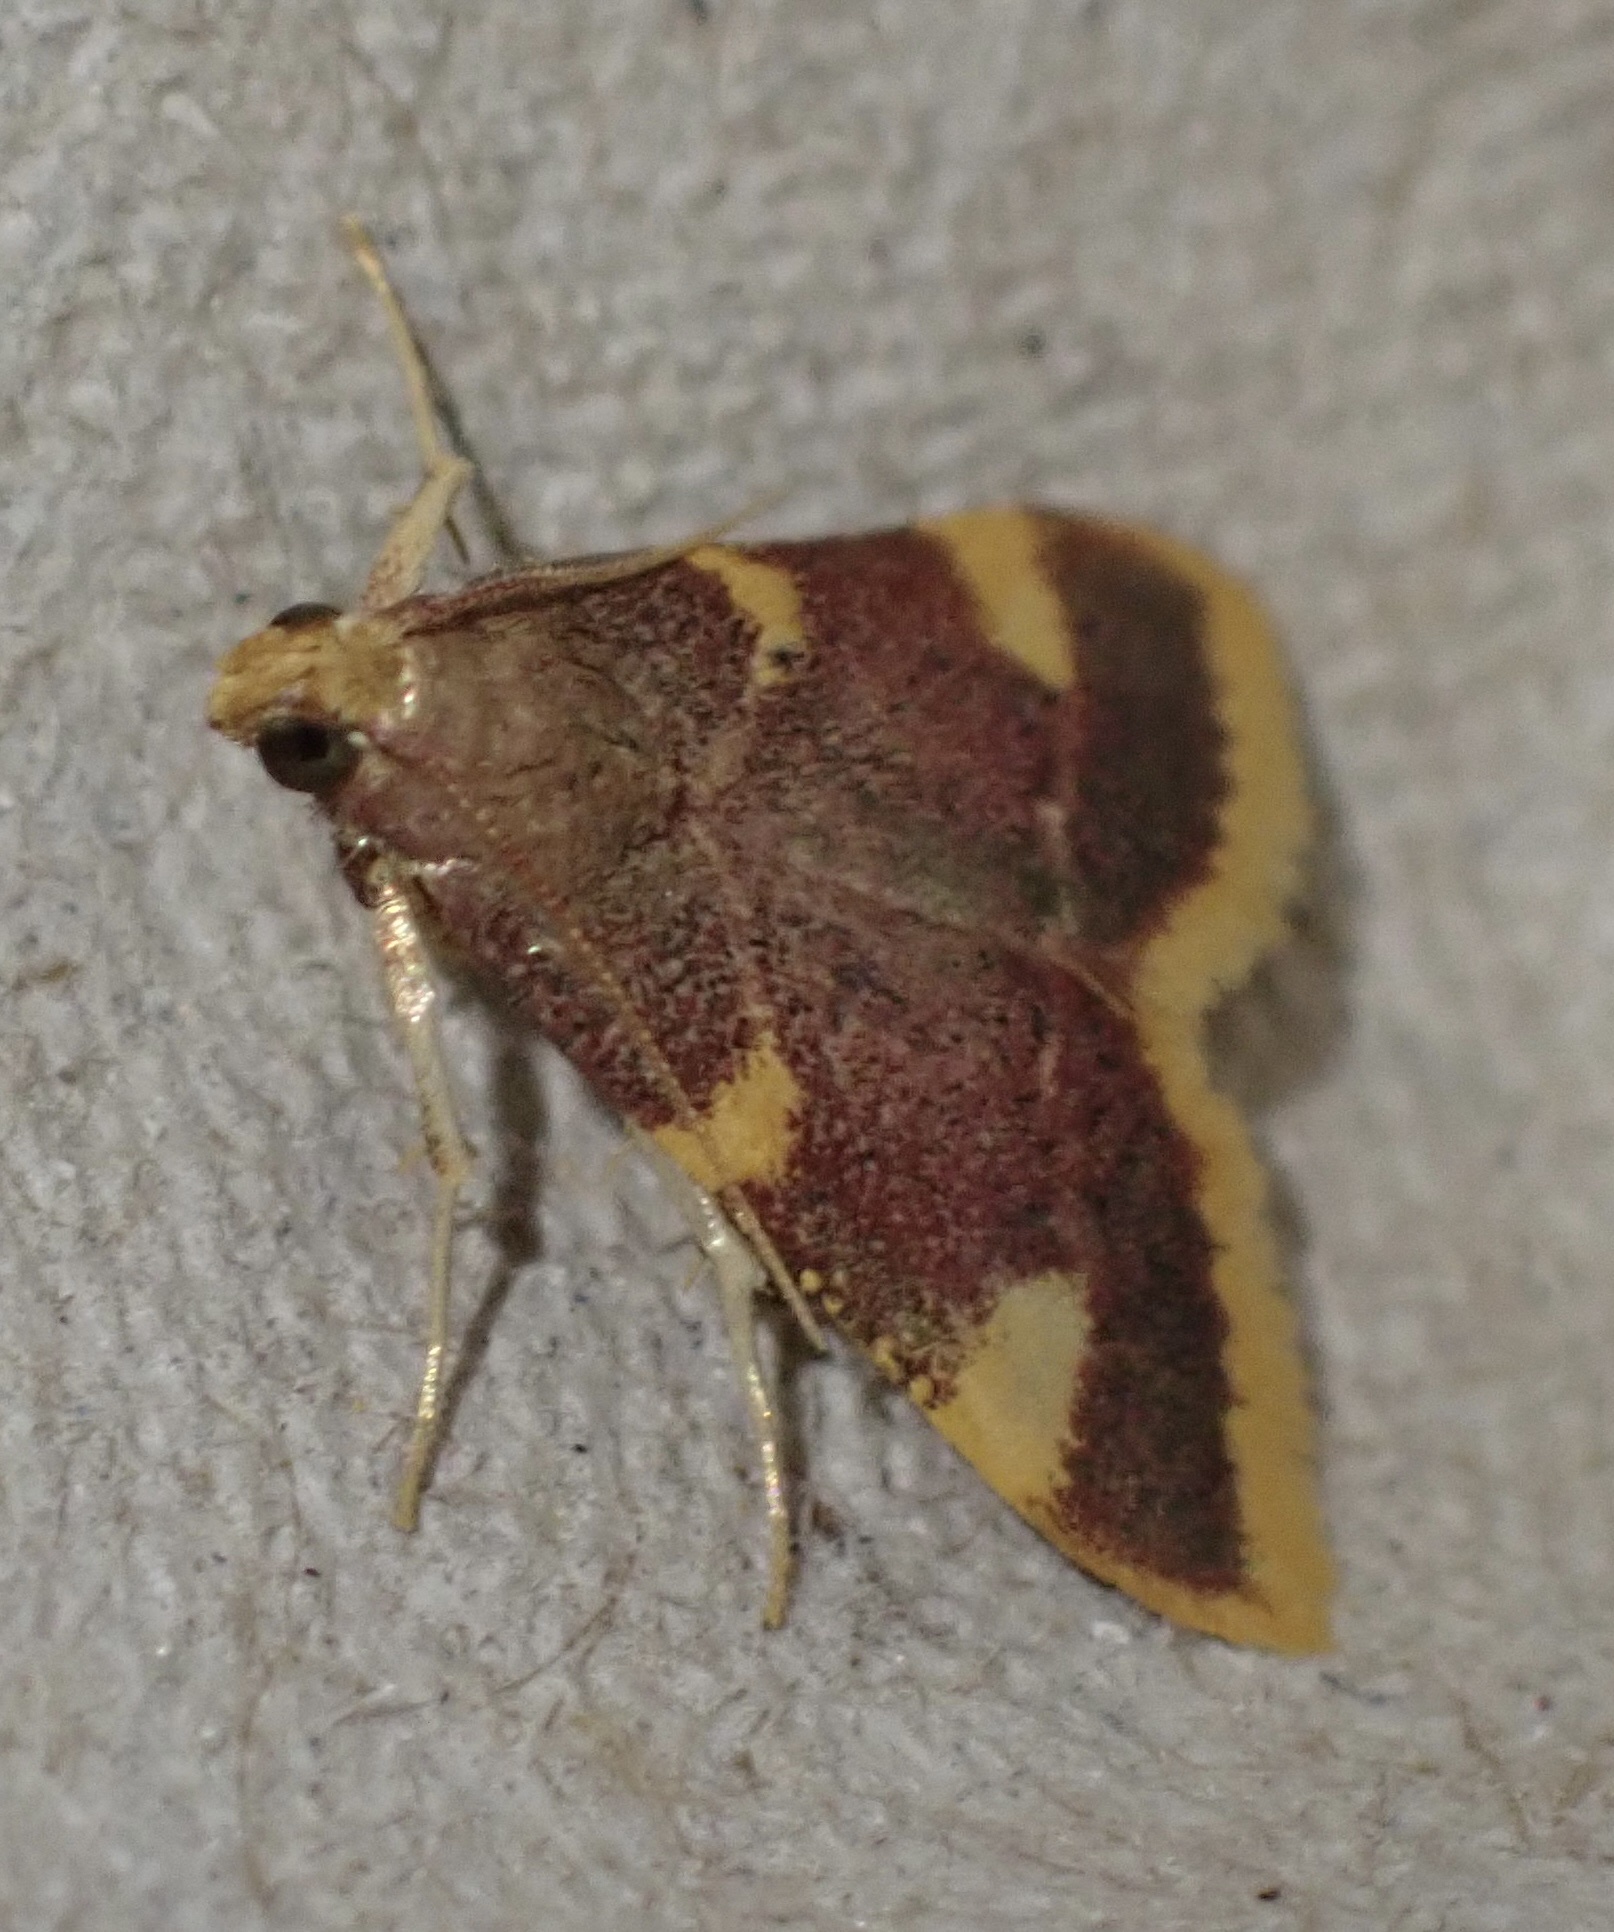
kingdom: Animalia
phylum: Arthropoda
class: Insecta
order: Lepidoptera
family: Pyralidae
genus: Hypsopygia
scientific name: Hypsopygia costalis
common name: Gold triangle
